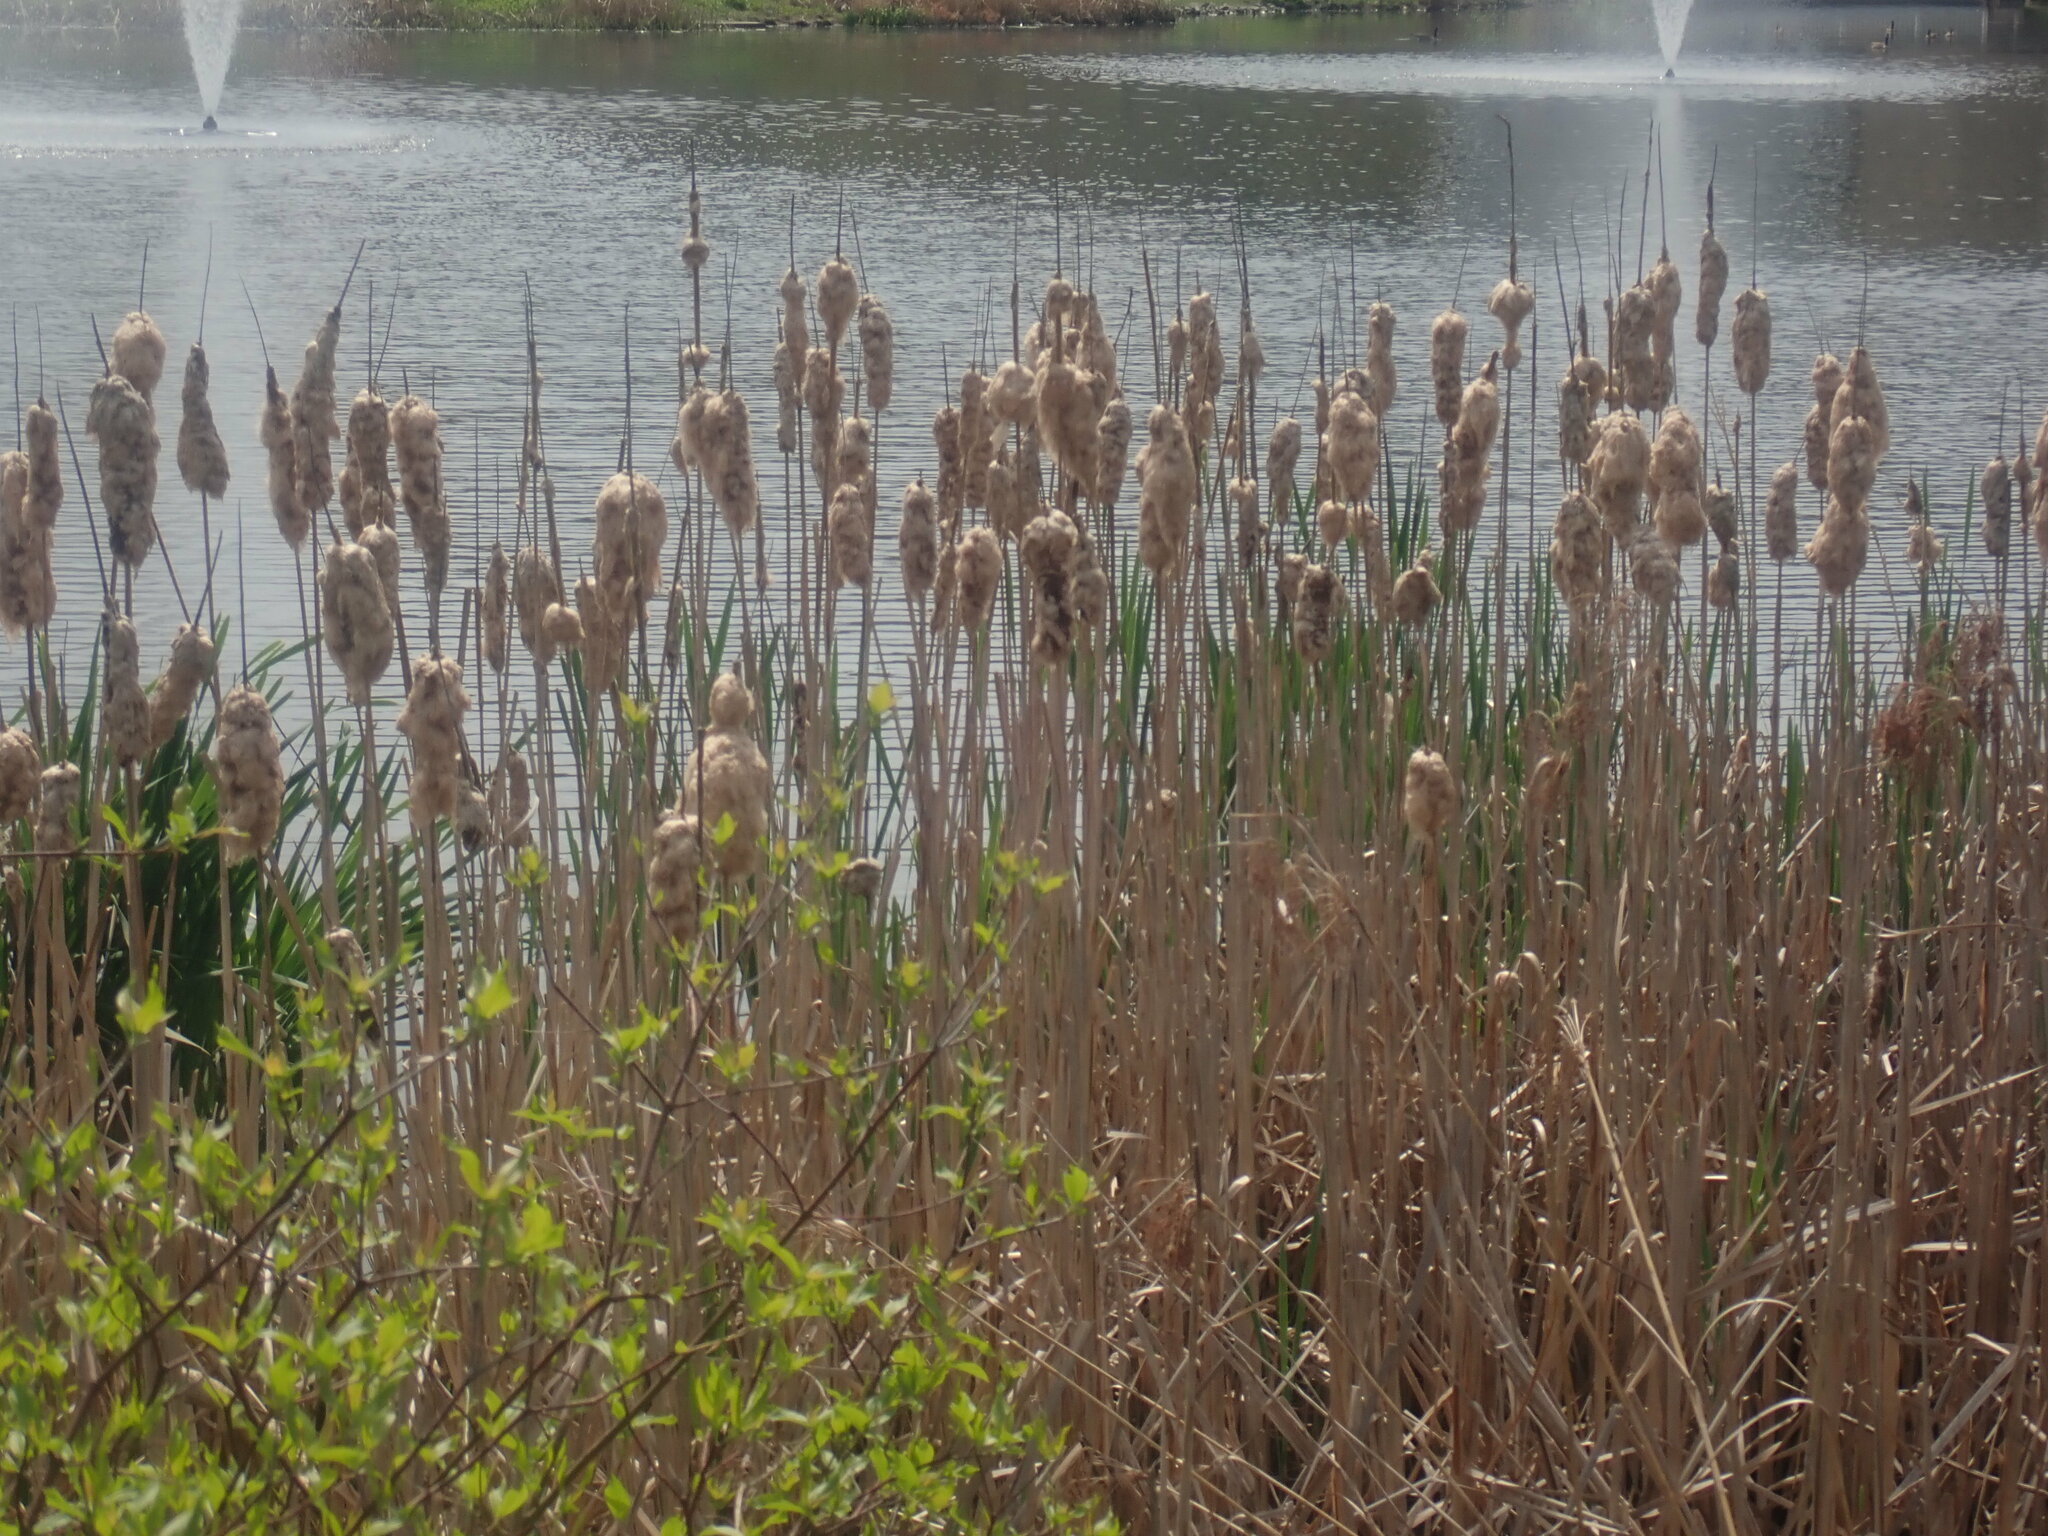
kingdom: Plantae
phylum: Tracheophyta
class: Liliopsida
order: Poales
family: Typhaceae
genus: Typha
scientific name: Typha
